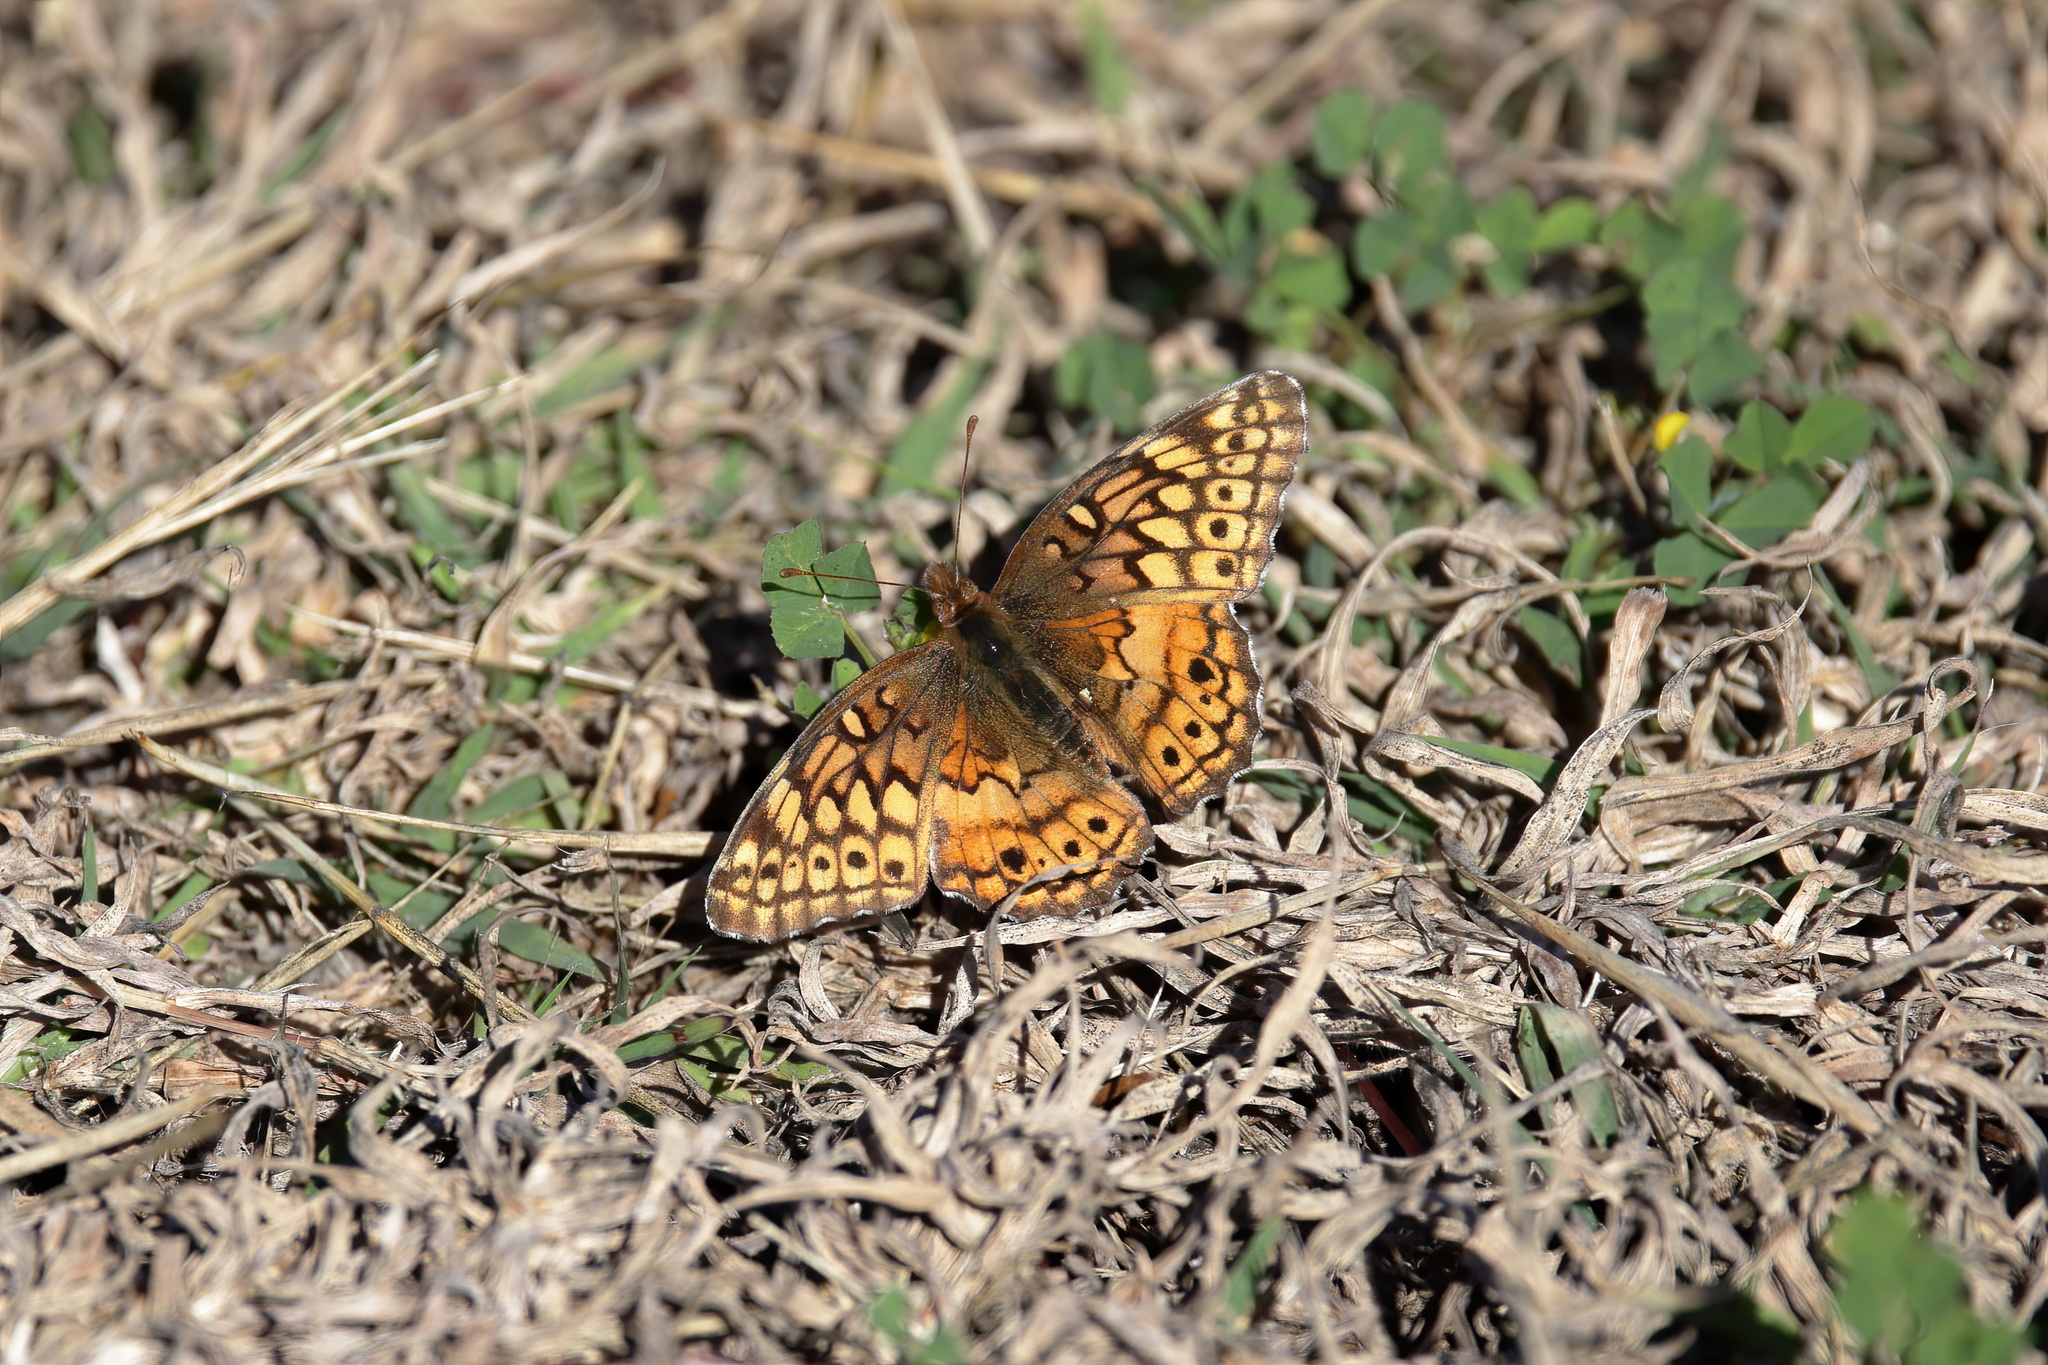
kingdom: Animalia
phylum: Arthropoda
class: Insecta
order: Lepidoptera
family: Nymphalidae
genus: Euptoieta
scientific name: Euptoieta claudia
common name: Variegated fritillary
